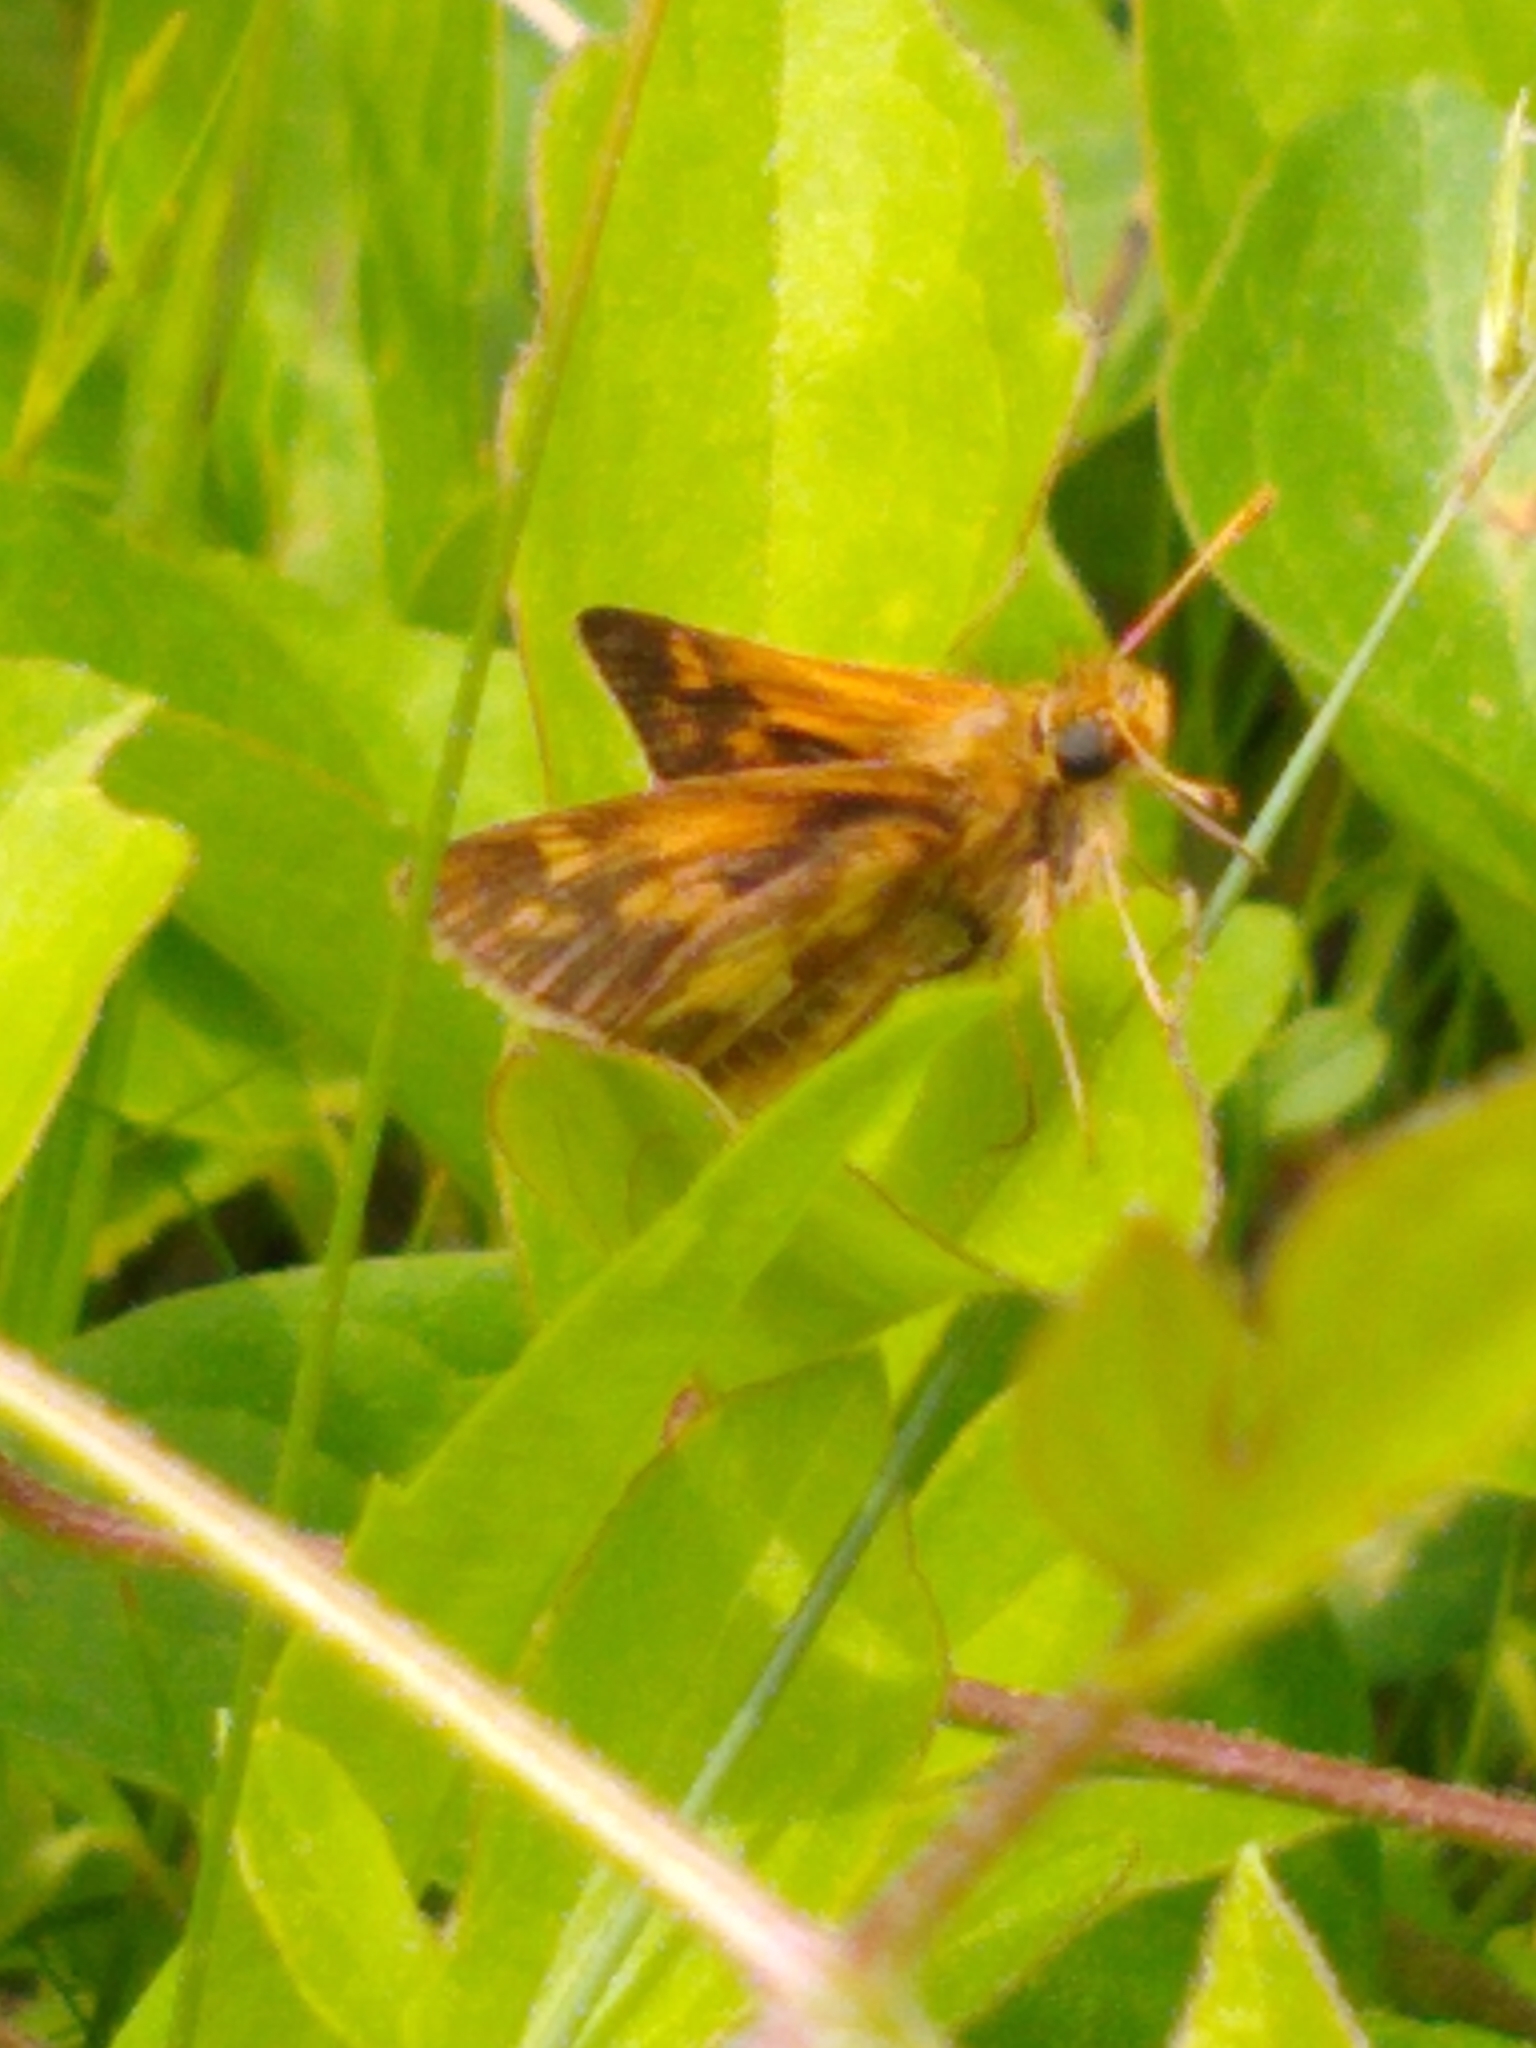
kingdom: Animalia
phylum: Arthropoda
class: Insecta
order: Lepidoptera
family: Hesperiidae
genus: Polites
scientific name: Polites coras
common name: Peck's skipper
